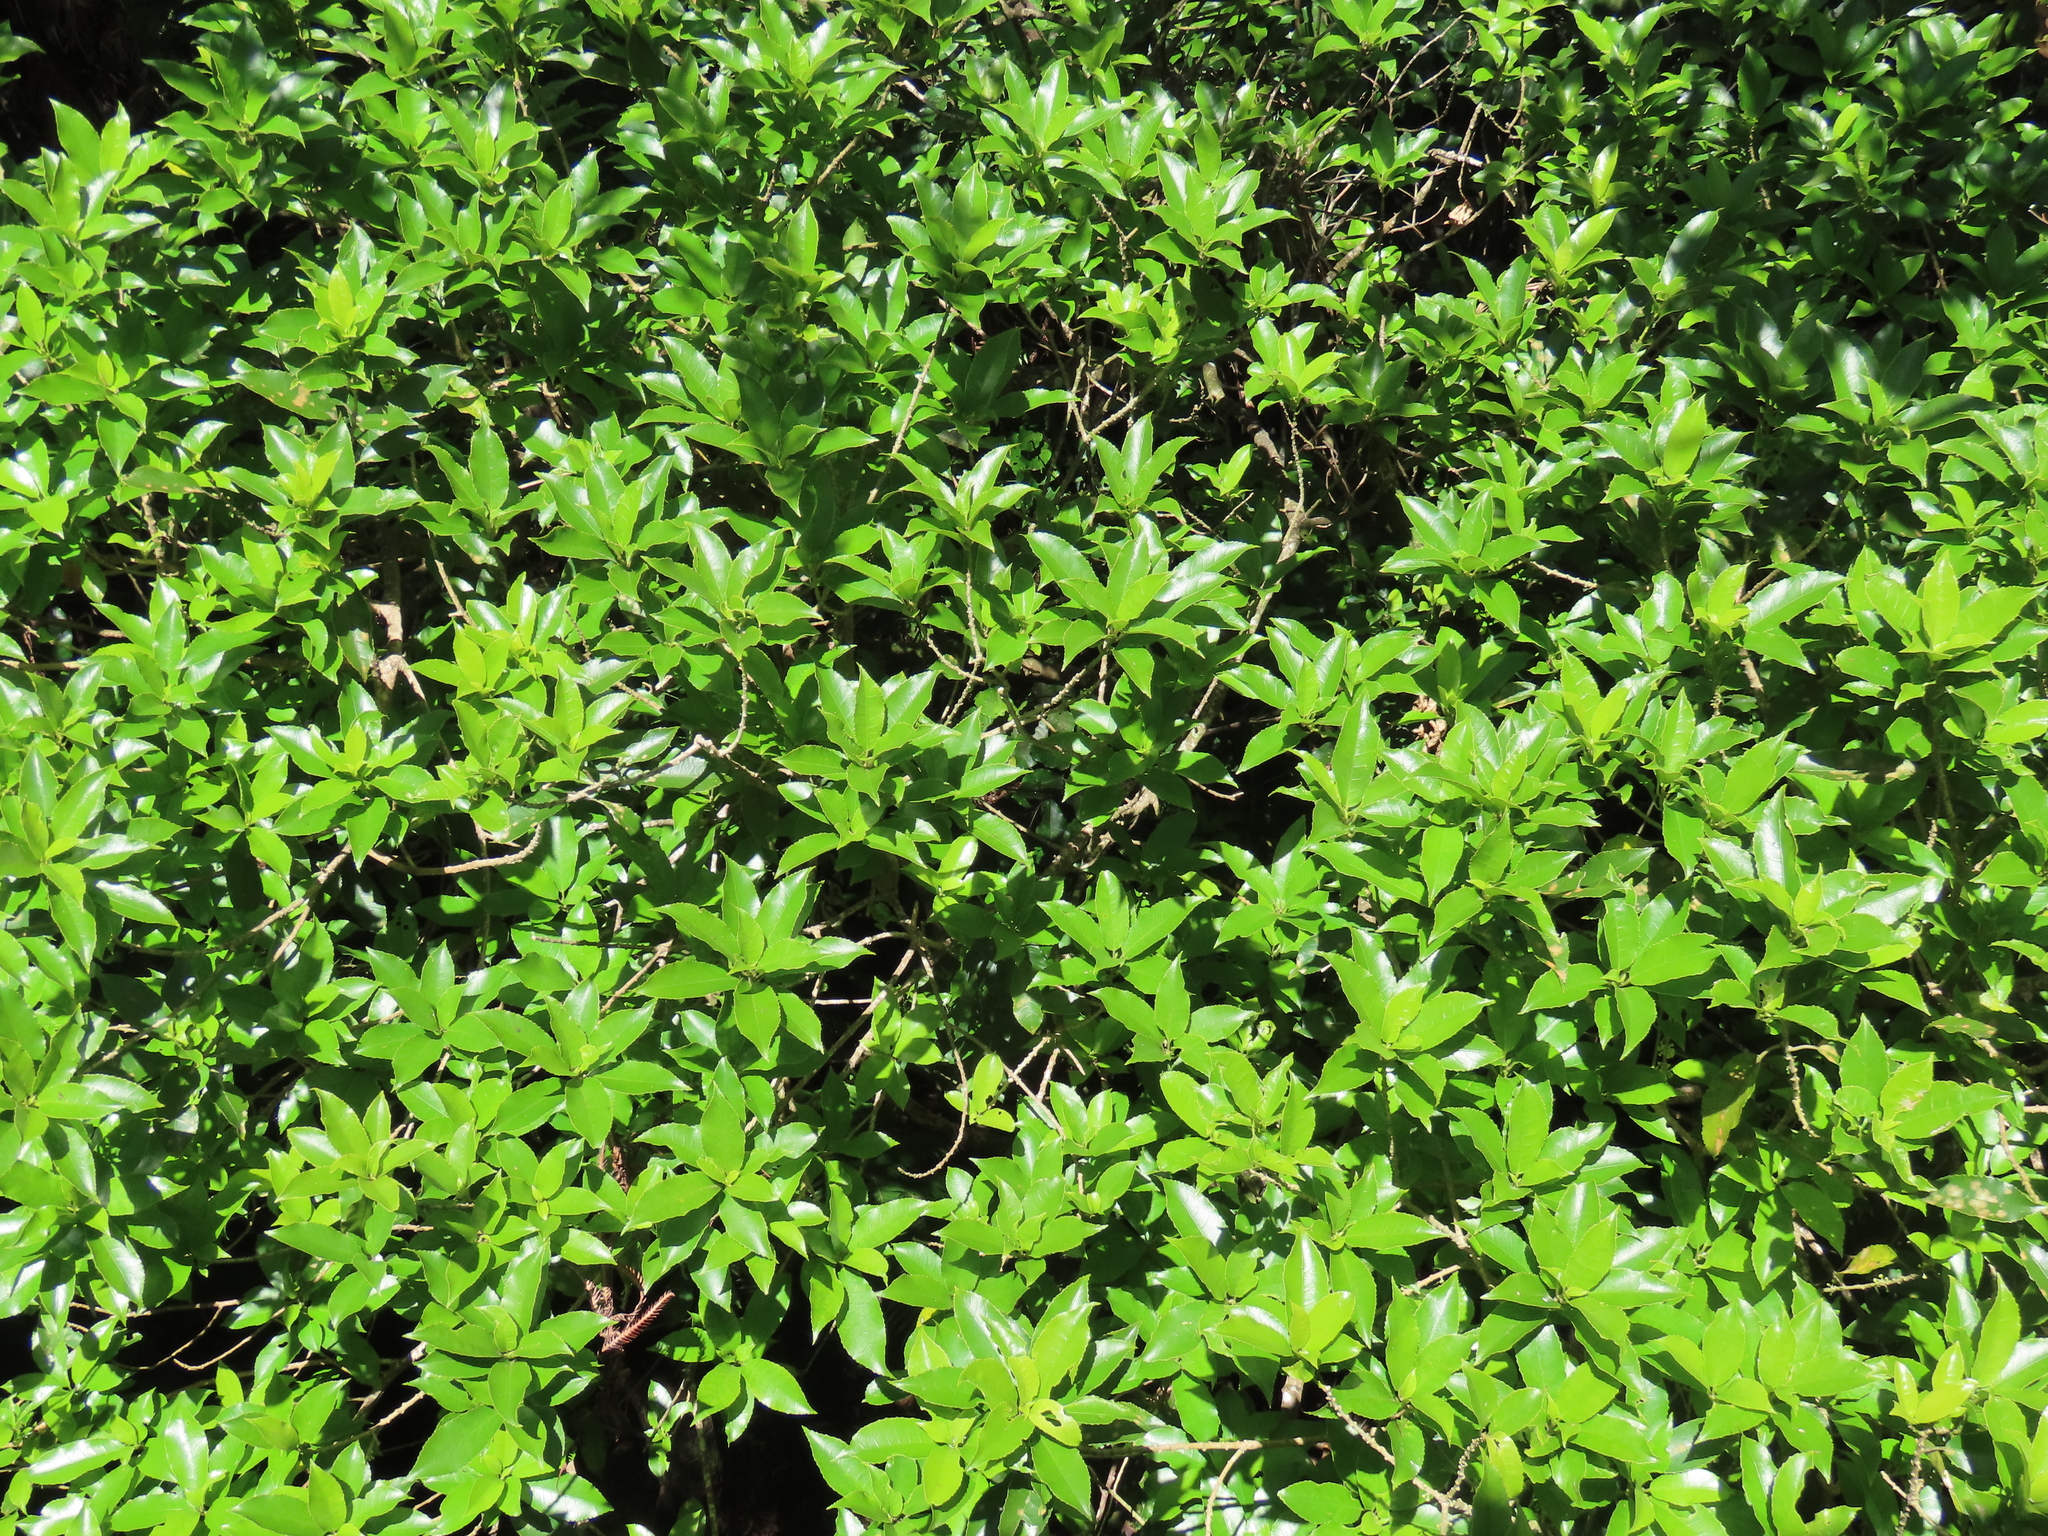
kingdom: Plantae
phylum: Tracheophyta
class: Magnoliopsida
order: Malpighiales
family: Violaceae
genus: Melicytus
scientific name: Melicytus ramiflorus
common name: Mahoe
